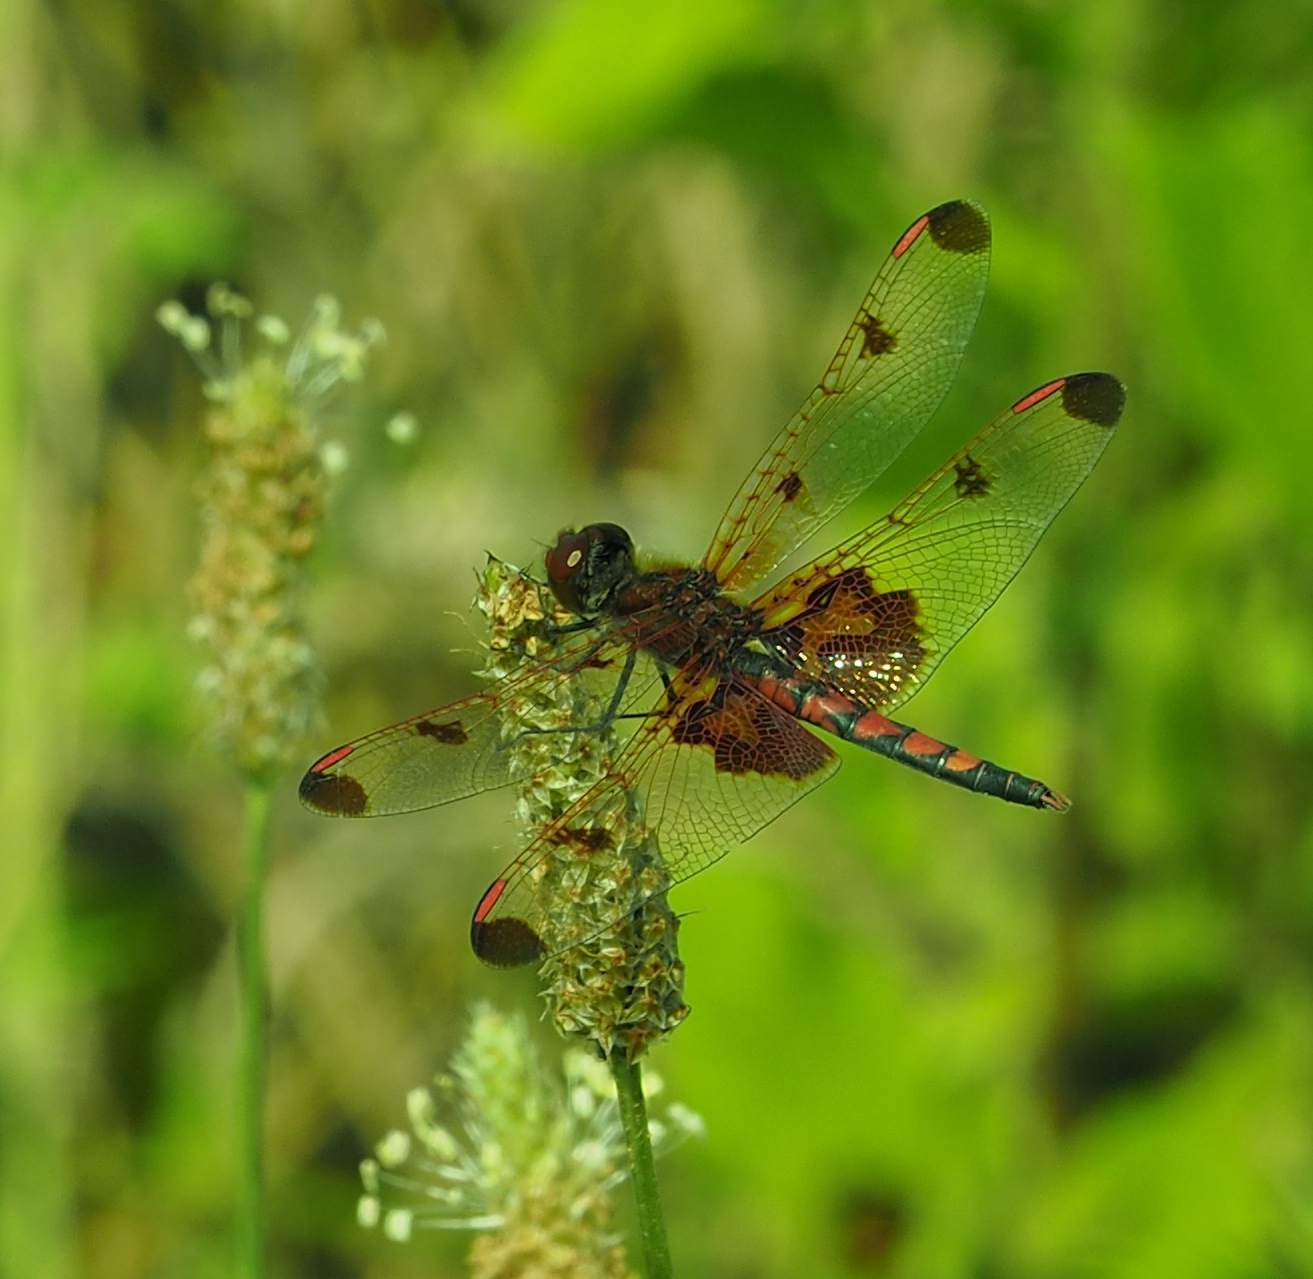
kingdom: Animalia
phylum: Arthropoda
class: Insecta
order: Odonata
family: Libellulidae
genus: Celithemis
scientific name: Celithemis elisa
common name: Calico pennant
